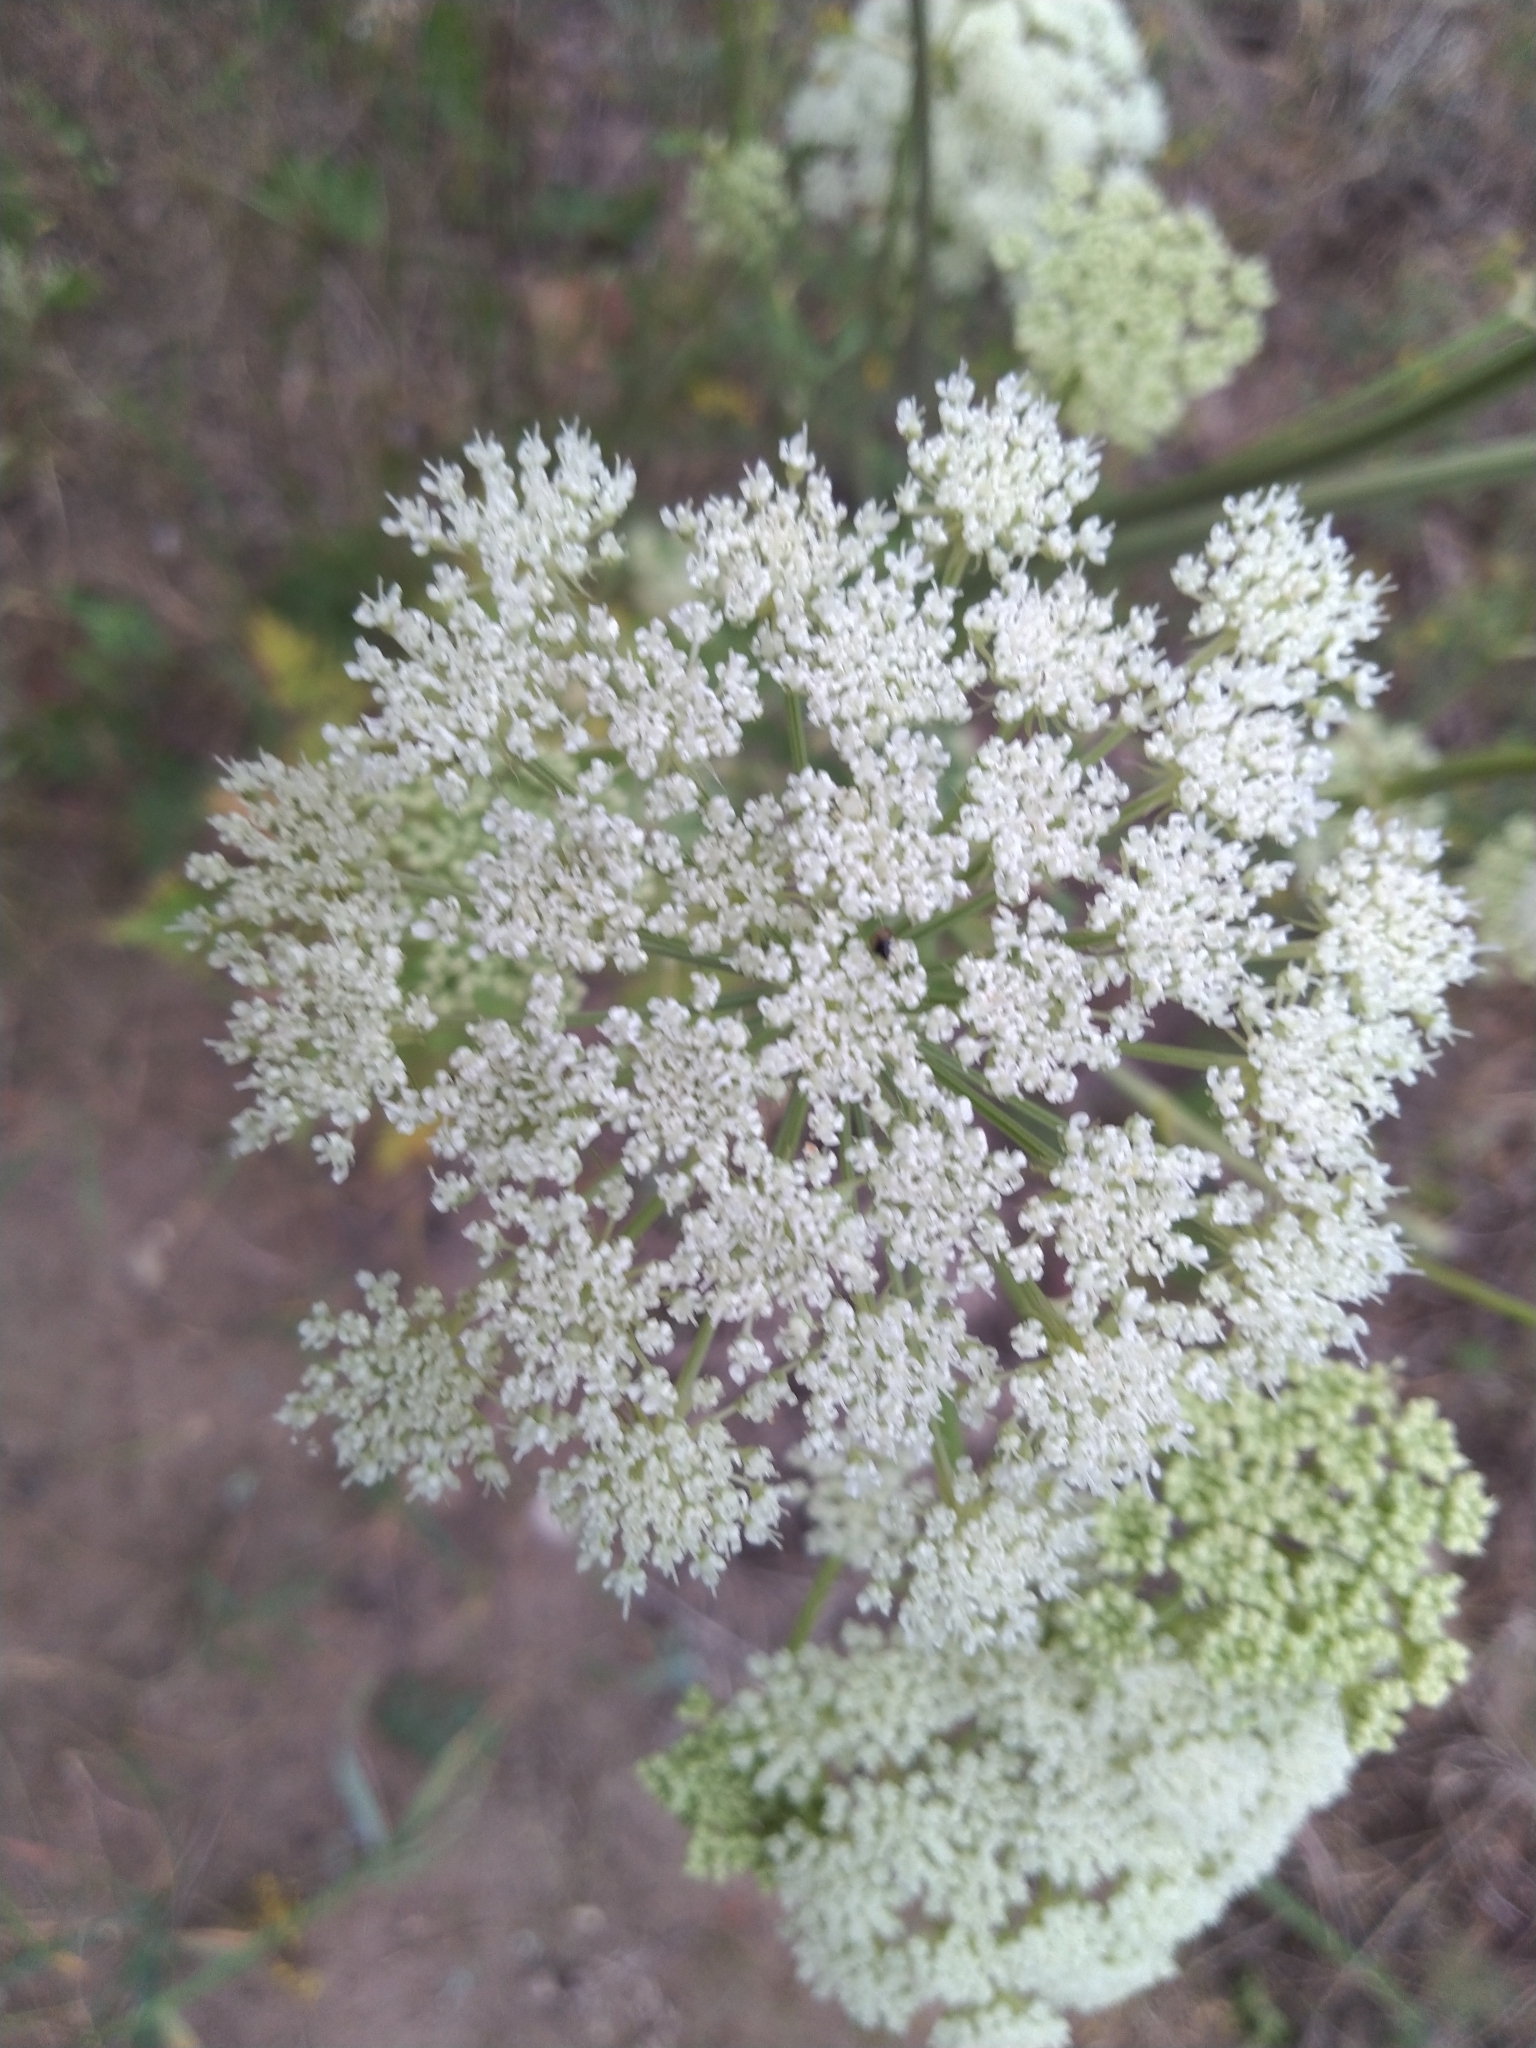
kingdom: Plantae
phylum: Tracheophyta
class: Magnoliopsida
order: Apiales
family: Apiaceae
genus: Seseli
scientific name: Seseli libanotis
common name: Mooncarrot
